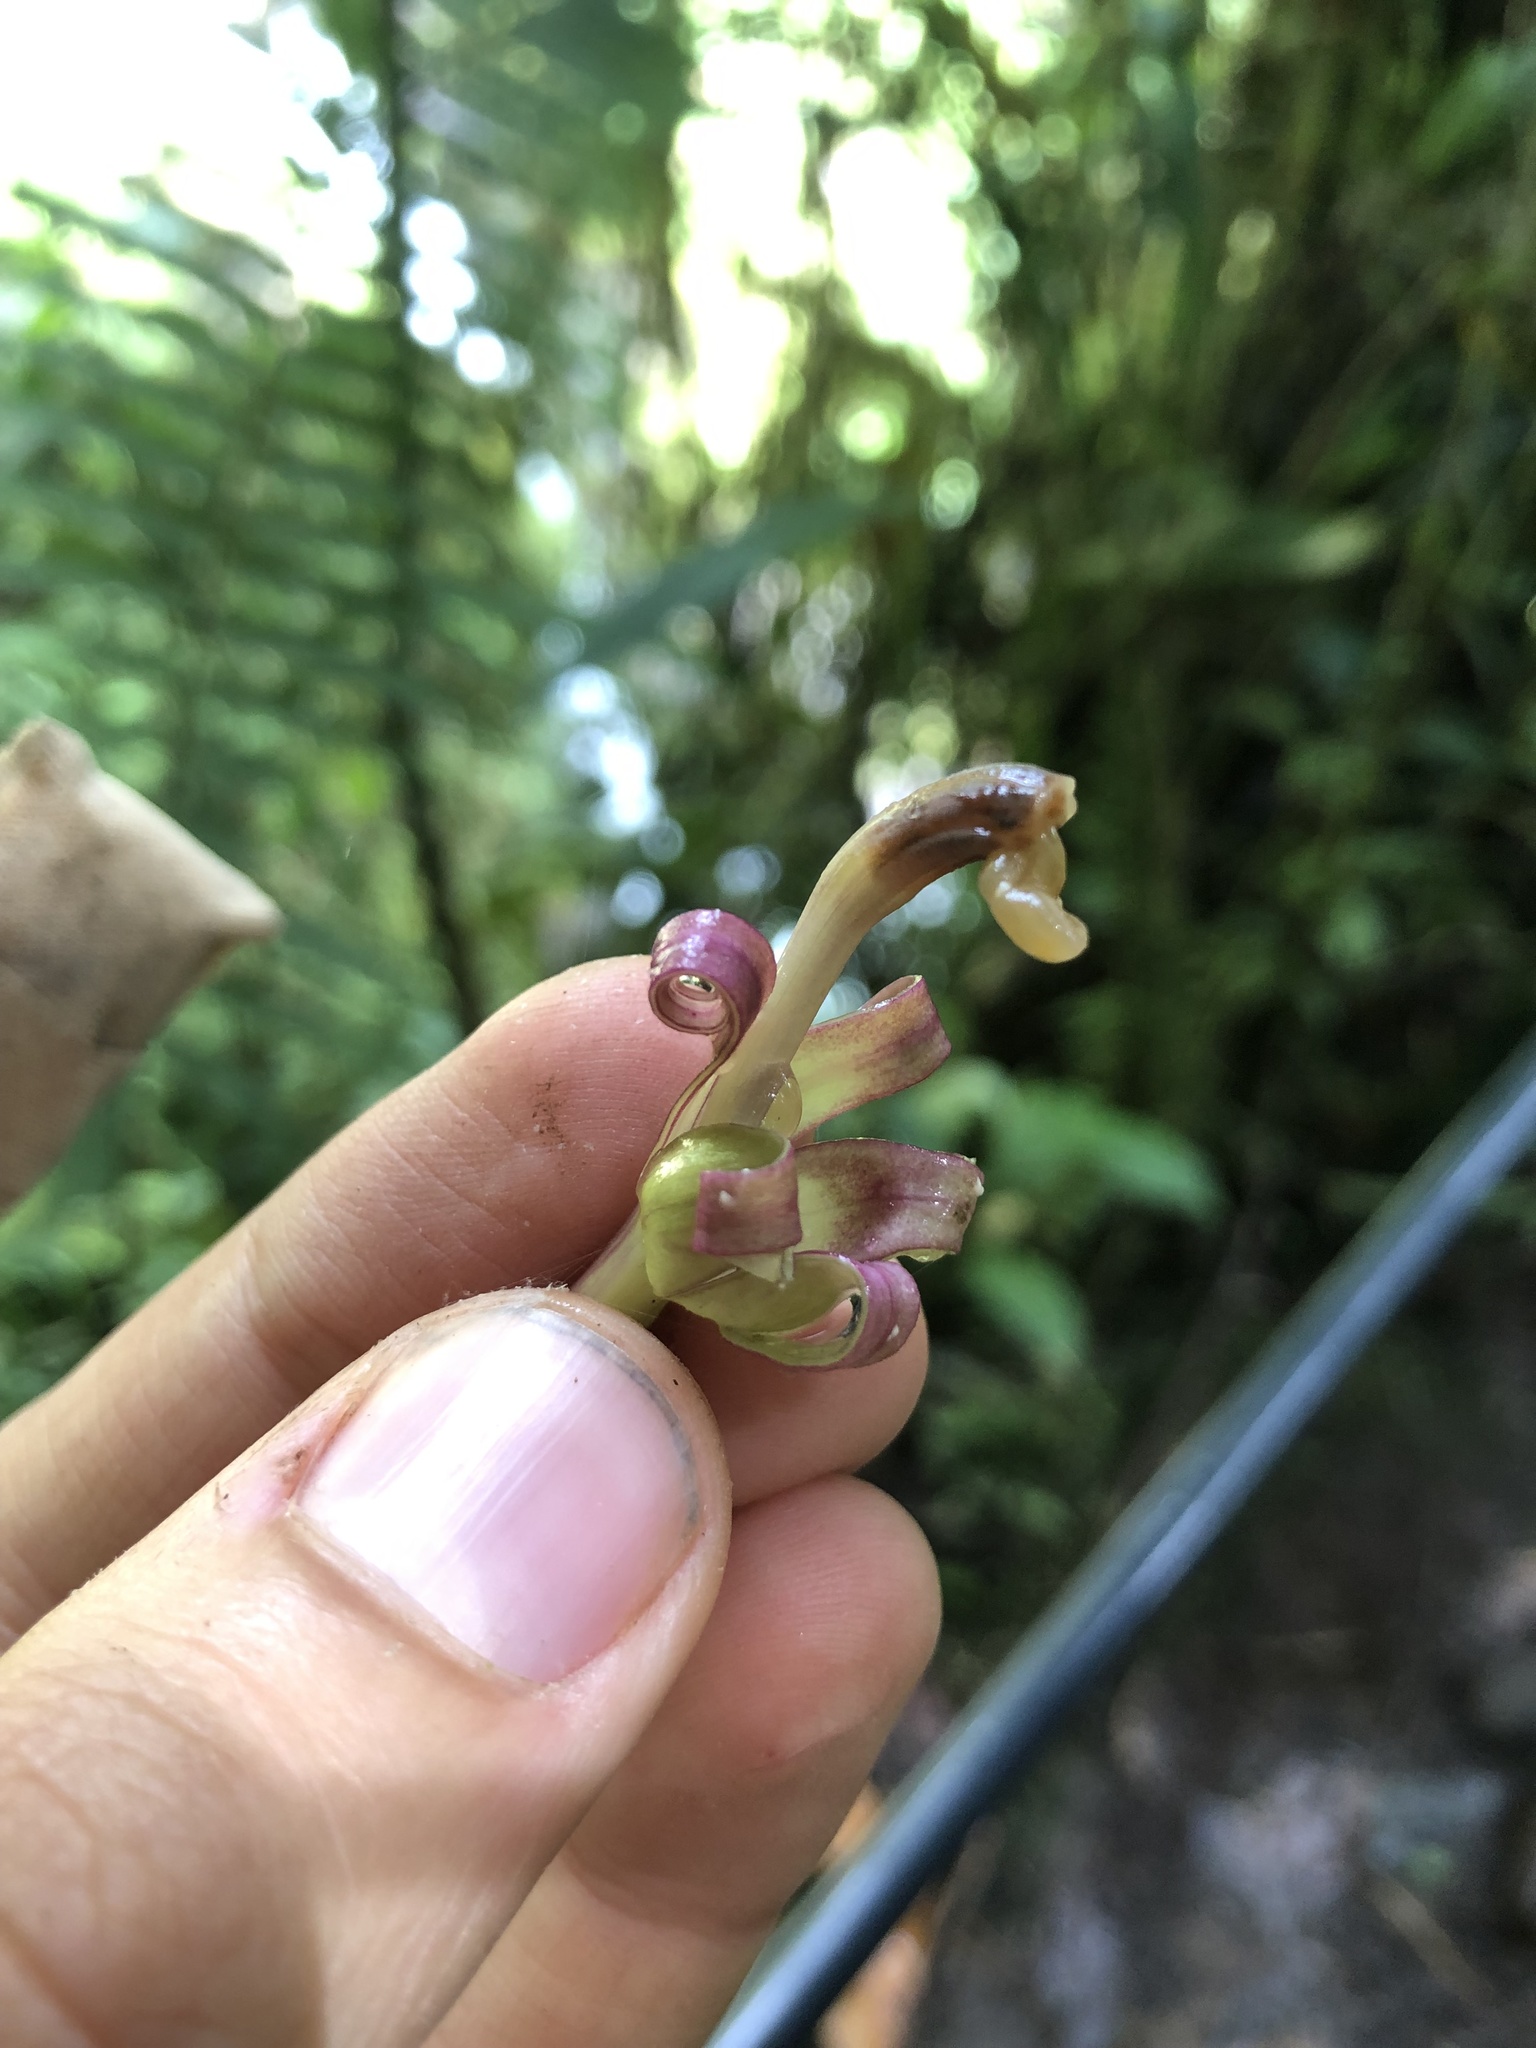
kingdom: Plantae
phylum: Tracheophyta
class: Magnoliopsida
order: Asterales
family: Campanulaceae
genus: Burmeistera
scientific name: Burmeistera succulenta
